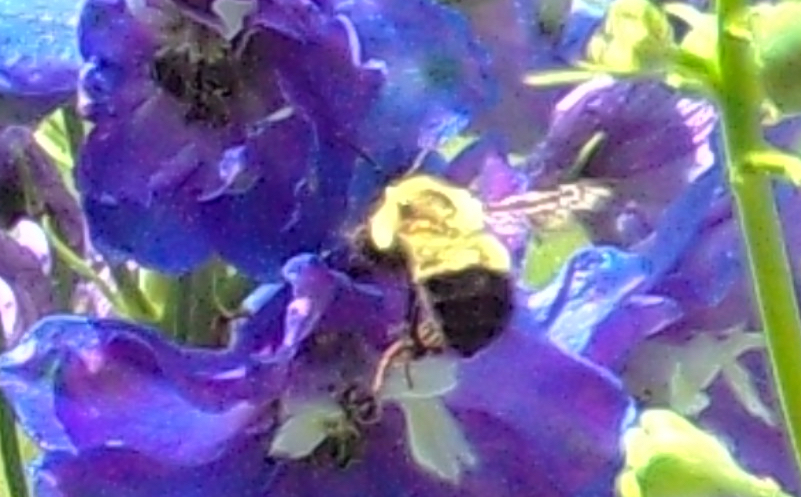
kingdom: Animalia
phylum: Arthropoda
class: Insecta
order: Hymenoptera
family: Apidae
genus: Pyrobombus
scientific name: Pyrobombus
